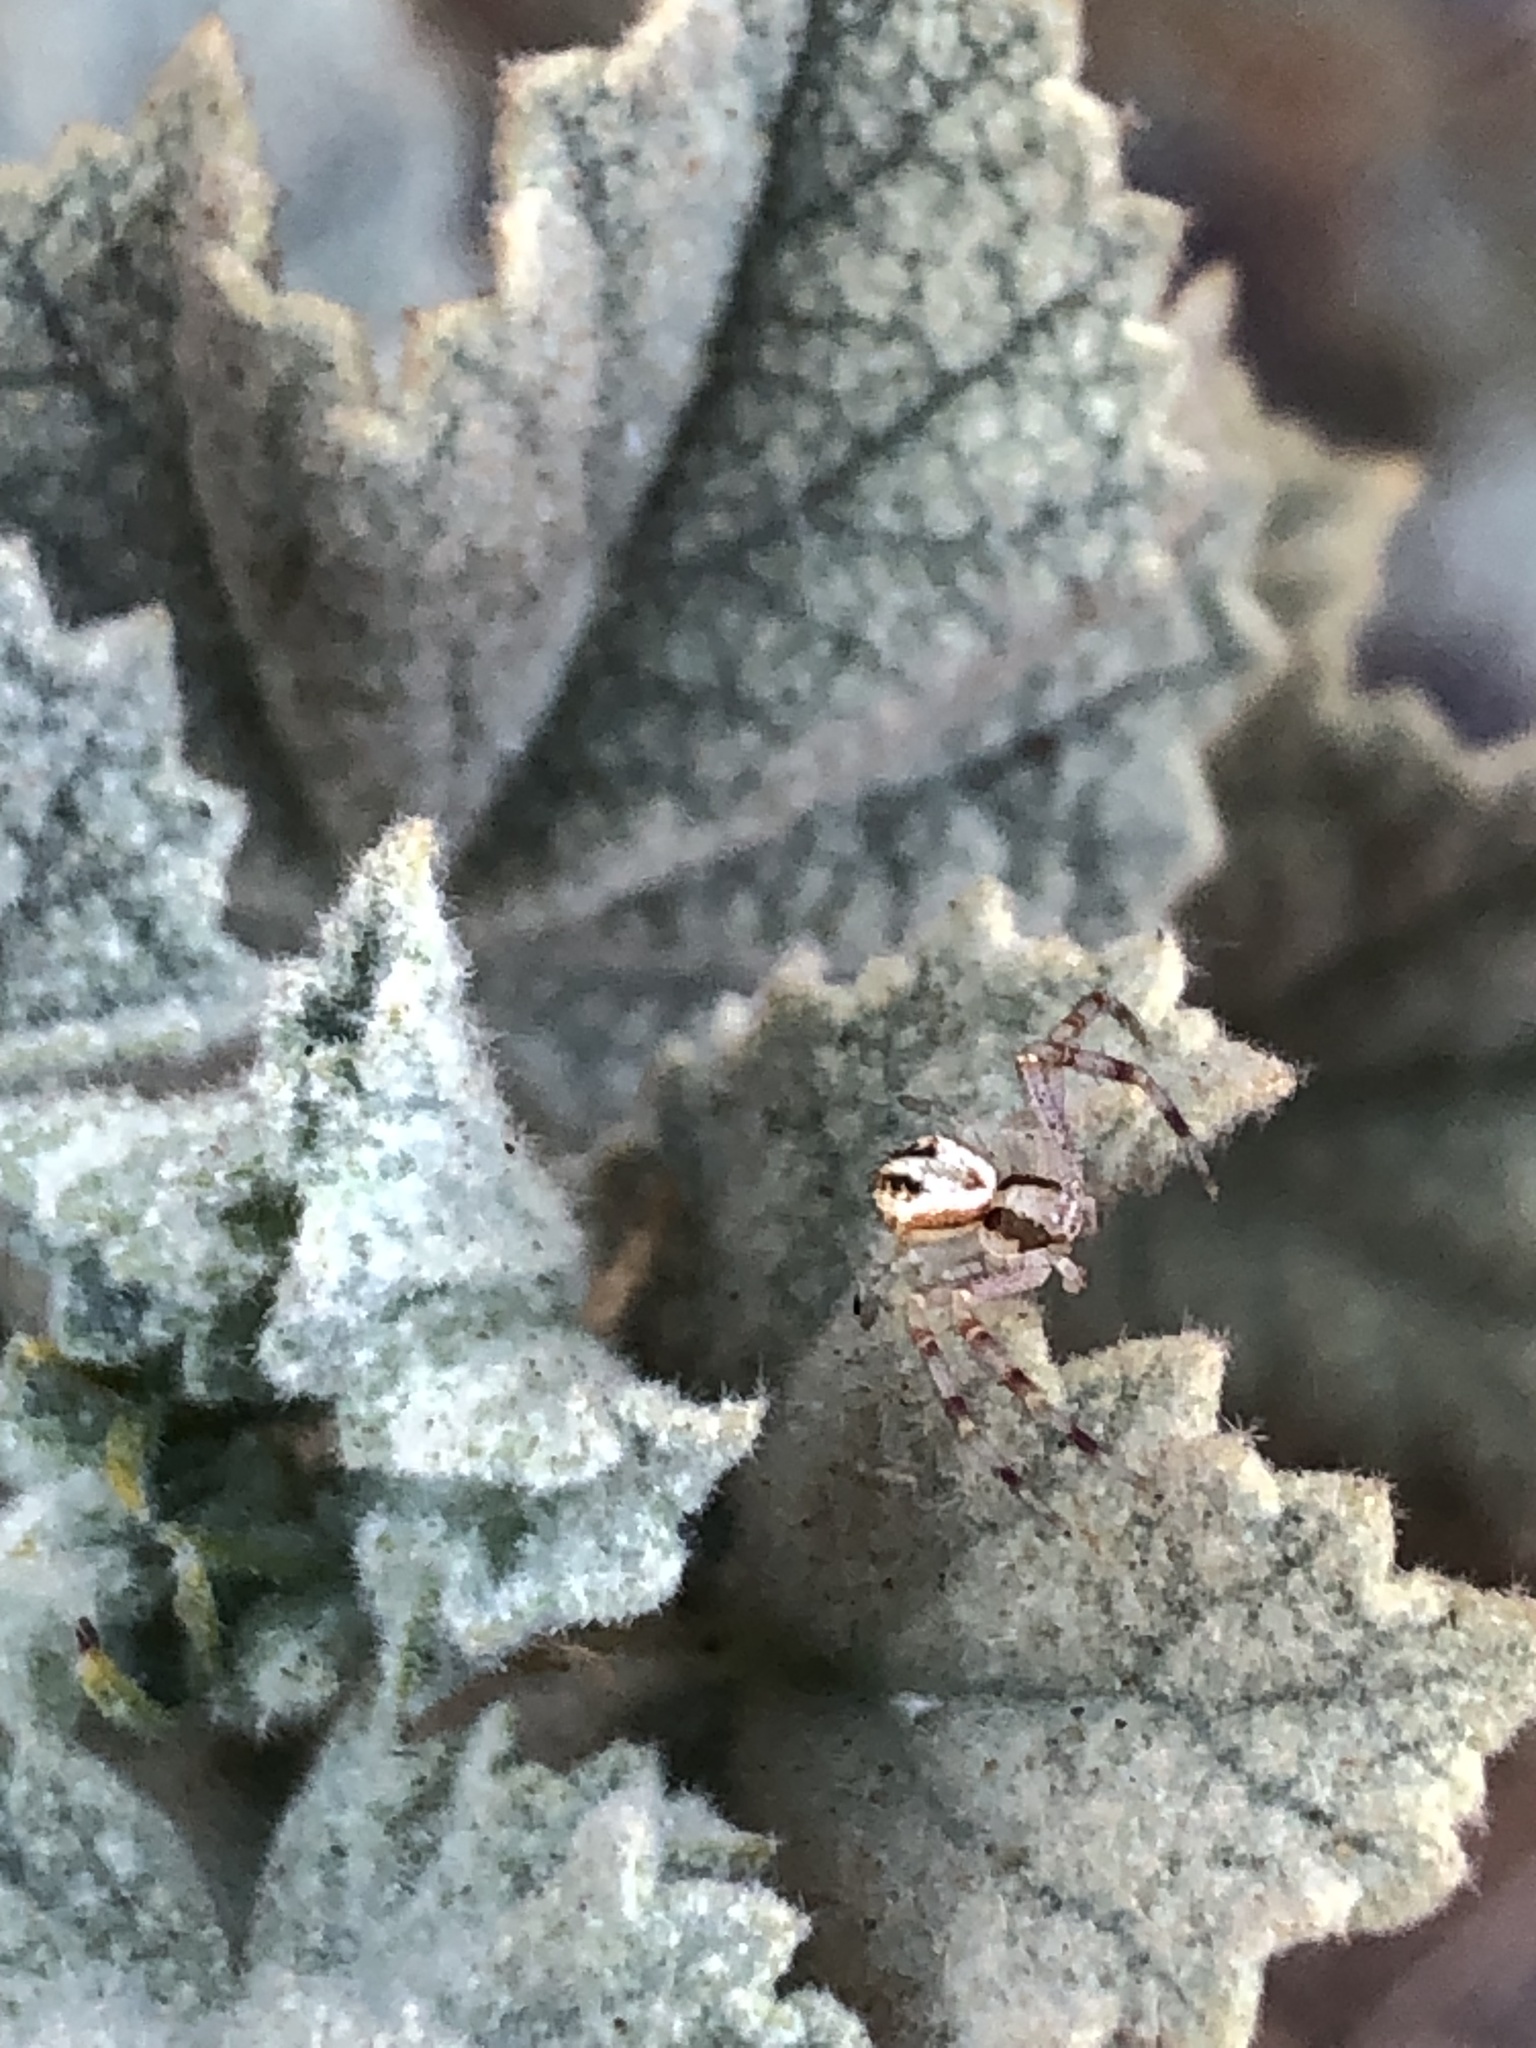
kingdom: Animalia
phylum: Arthropoda
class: Arachnida
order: Araneae
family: Thomisidae
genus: Misumenoides
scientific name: Misumenoides formosipes
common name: White-banded crab spider
